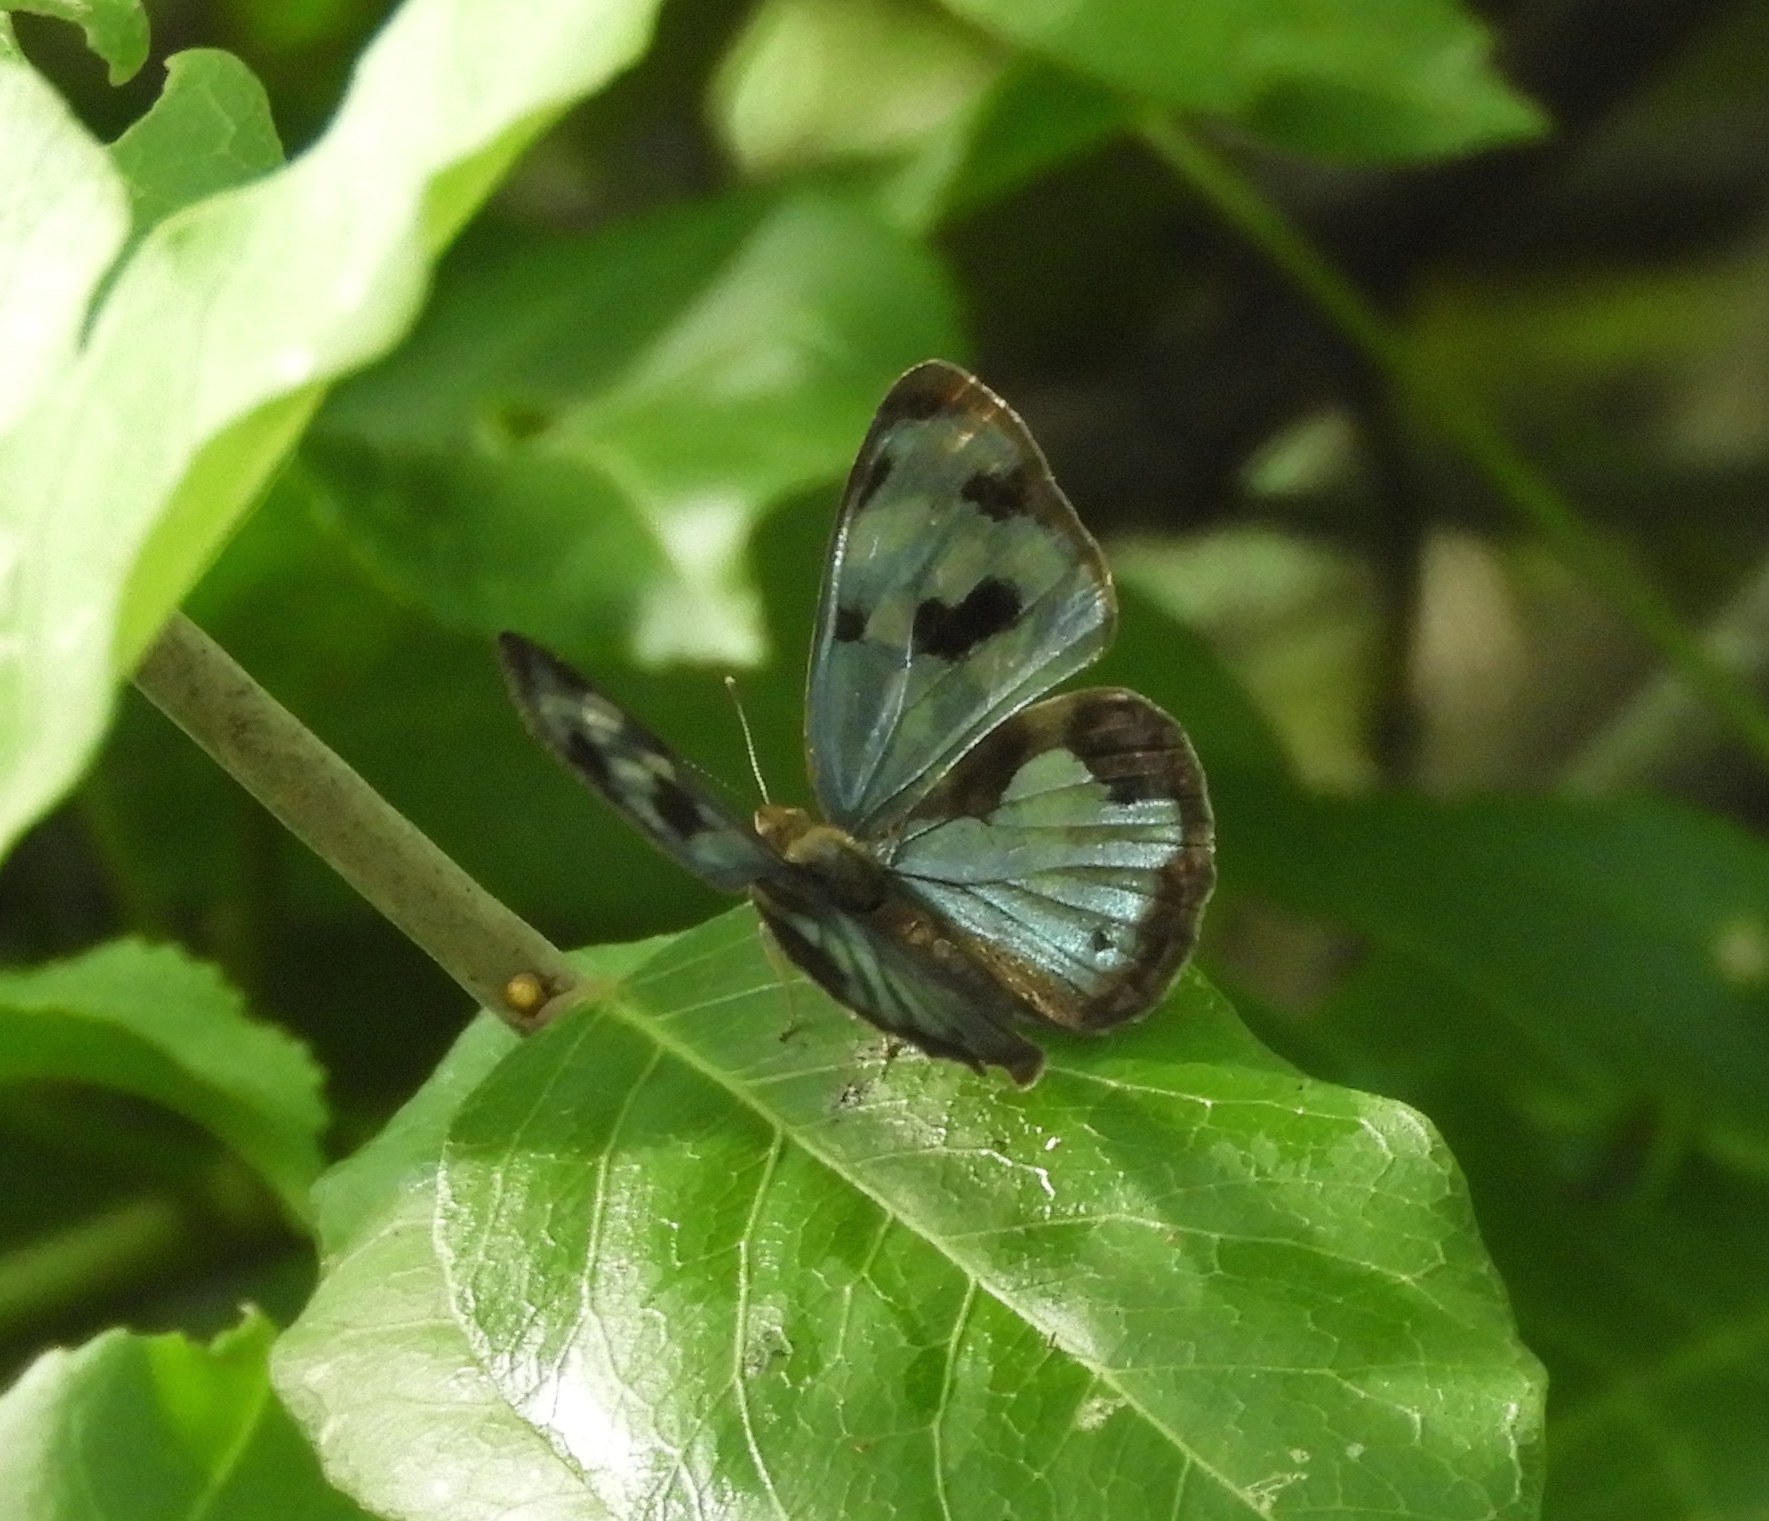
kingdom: Animalia
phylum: Arthropoda
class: Insecta
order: Lepidoptera
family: Nymphalidae
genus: Dynamine
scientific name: Dynamine mylitta
